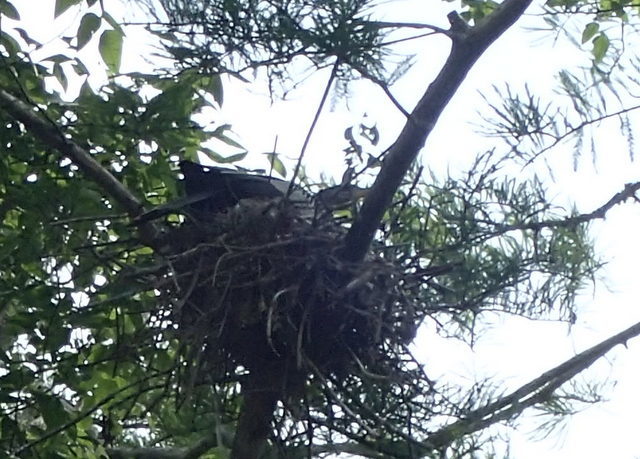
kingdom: Animalia
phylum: Chordata
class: Aves
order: Suliformes
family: Anhingidae
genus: Anhinga
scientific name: Anhinga anhinga
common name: Anhinga
